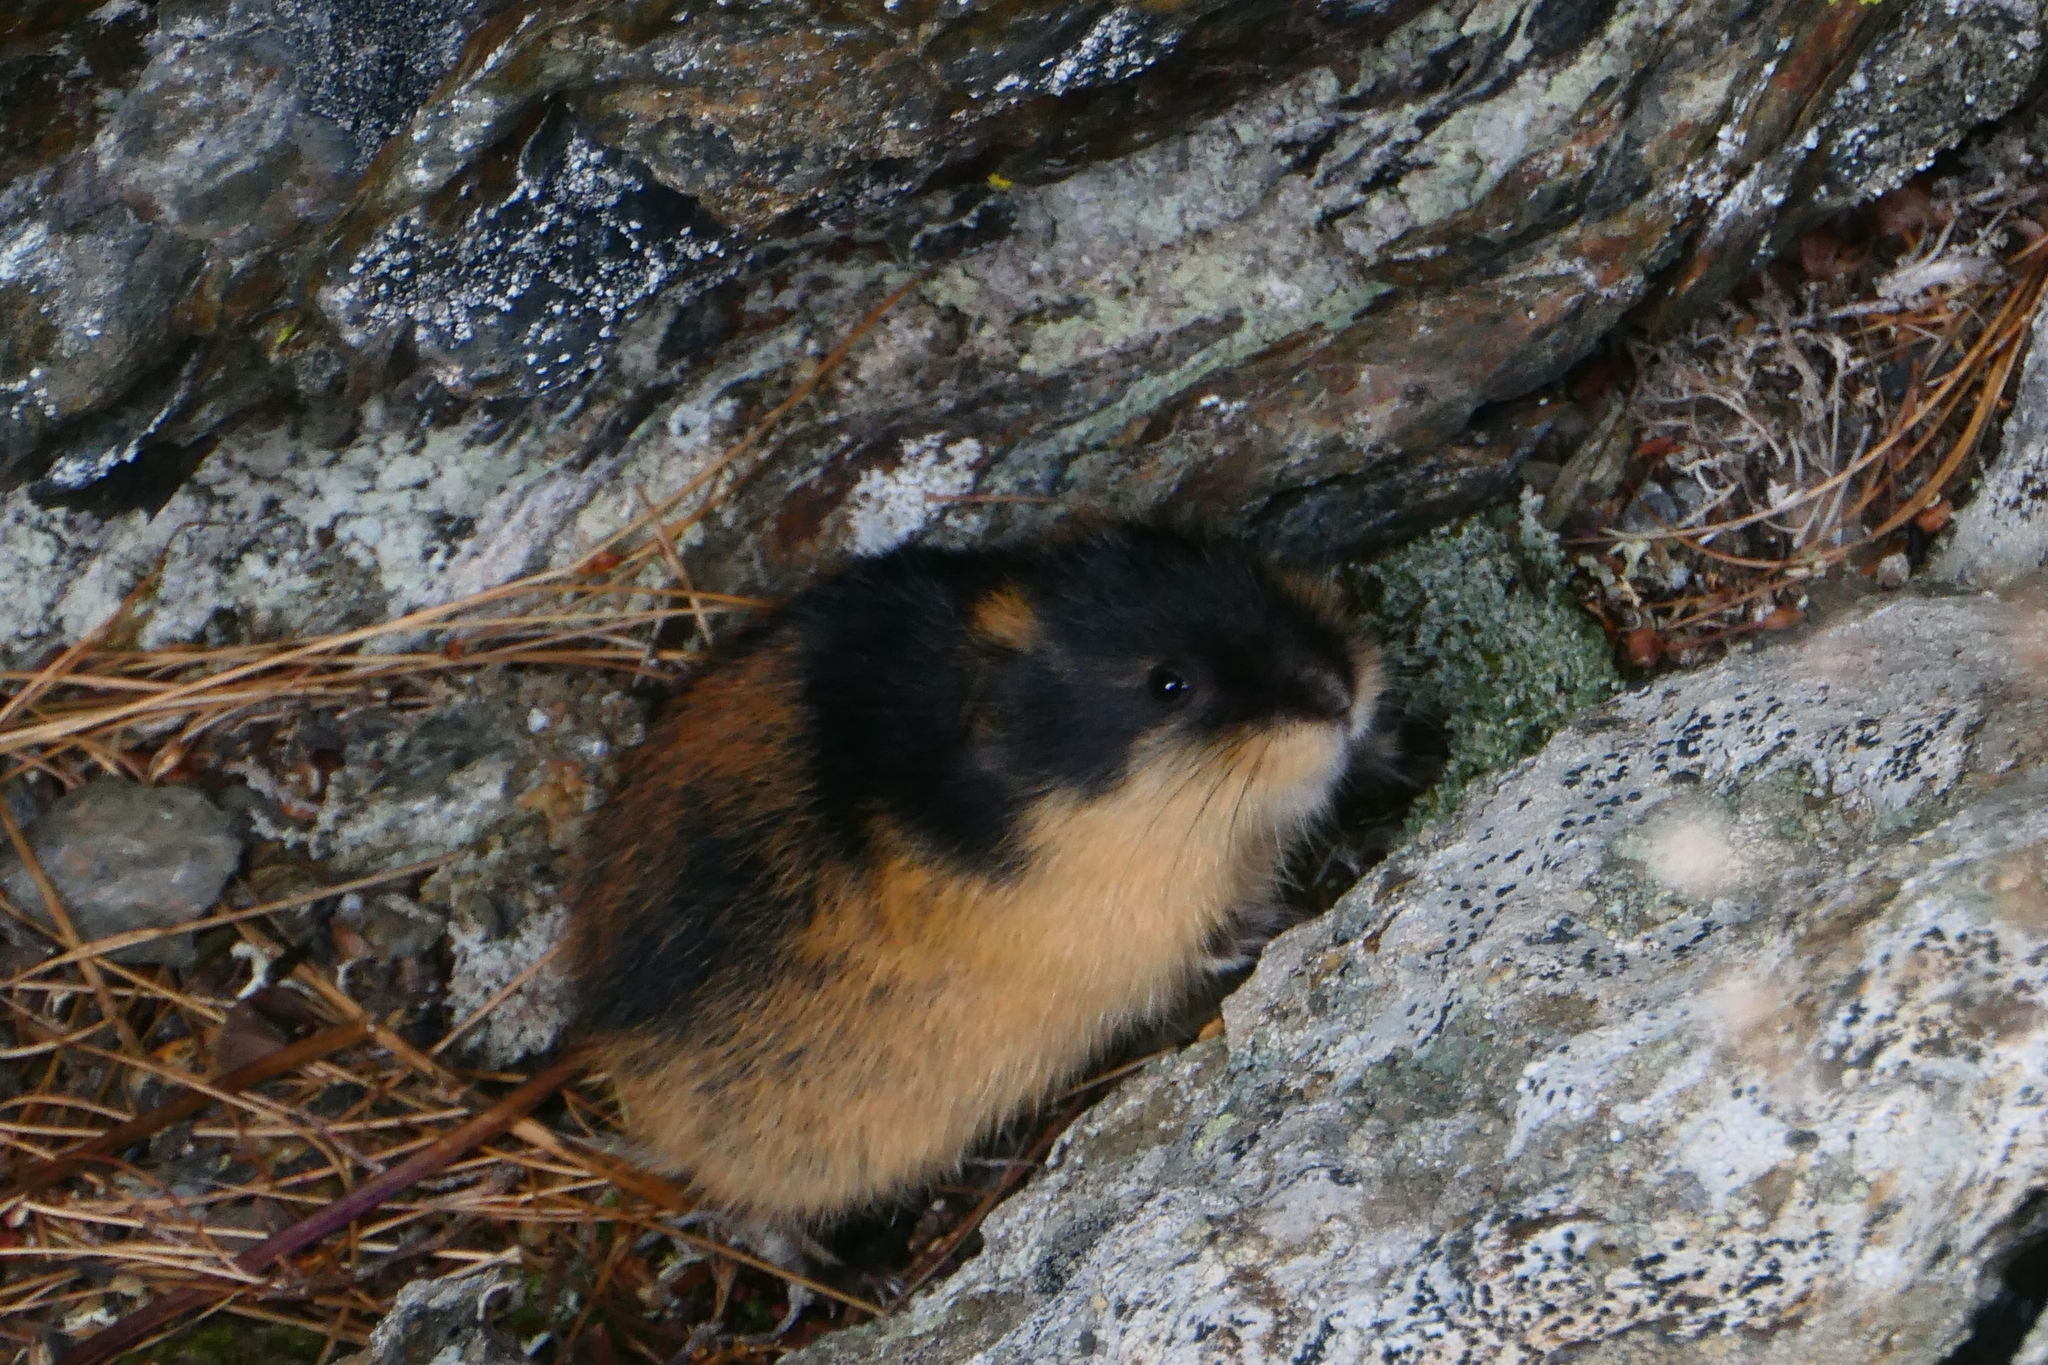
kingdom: Animalia
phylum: Chordata
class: Mammalia
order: Rodentia
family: Cricetidae
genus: Lemmus
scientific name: Lemmus lemmus
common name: Norway lemming
